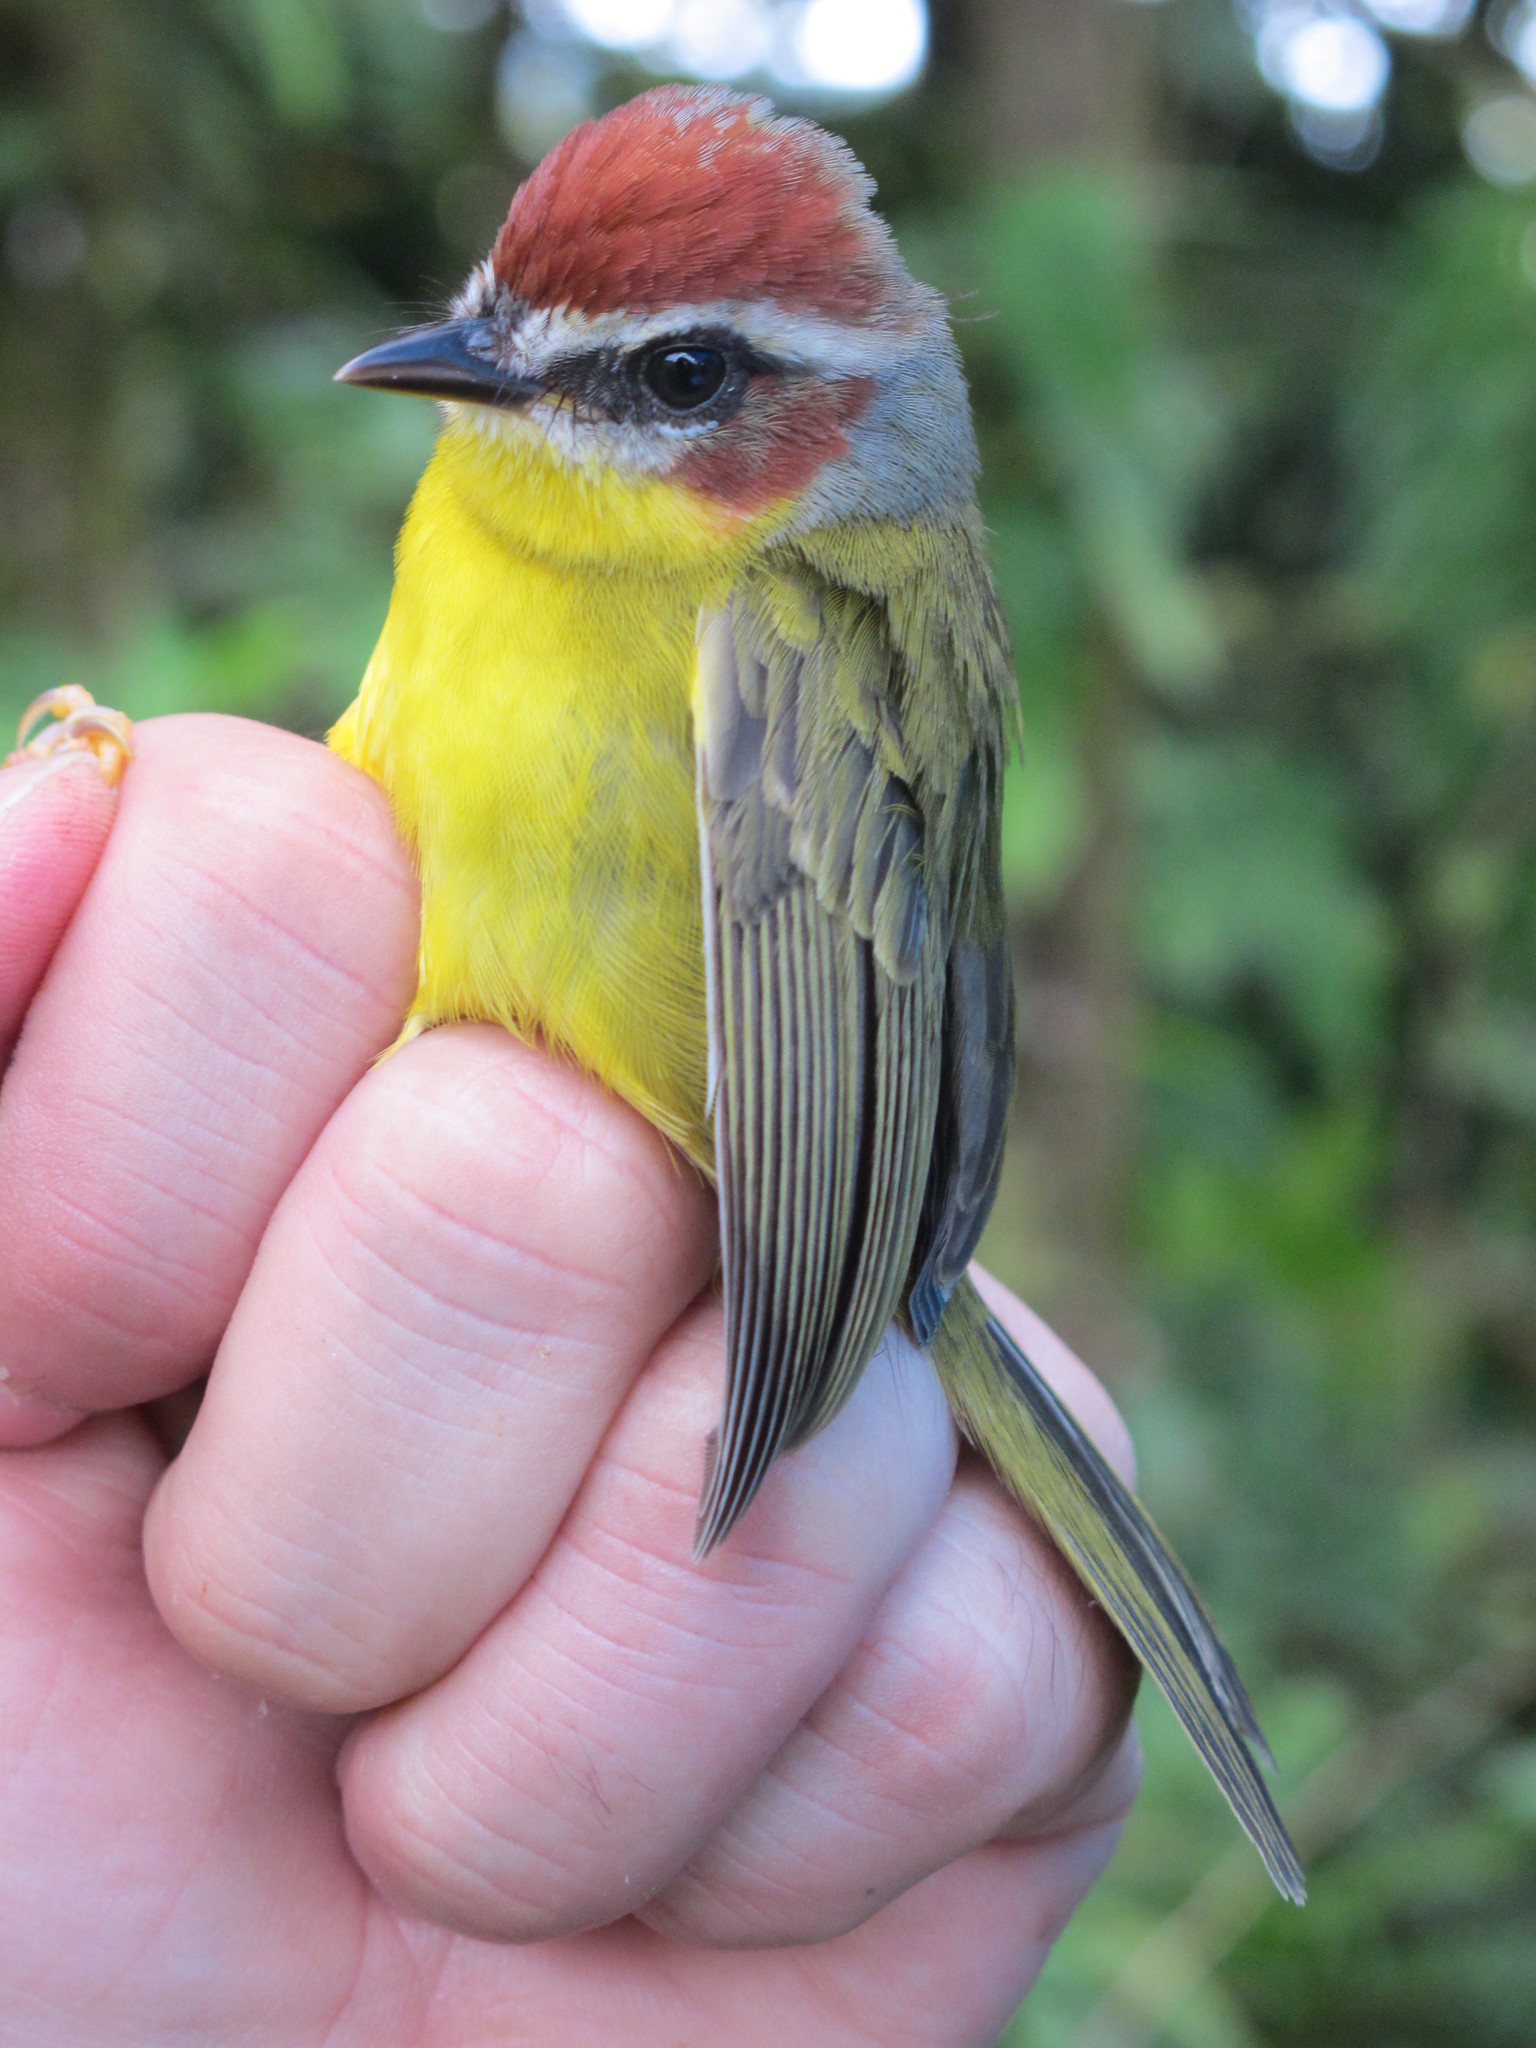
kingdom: Animalia
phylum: Chordata
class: Aves
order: Passeriformes
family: Parulidae
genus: Basileuterus
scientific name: Basileuterus rufifrons
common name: Rufous-capped warbler
